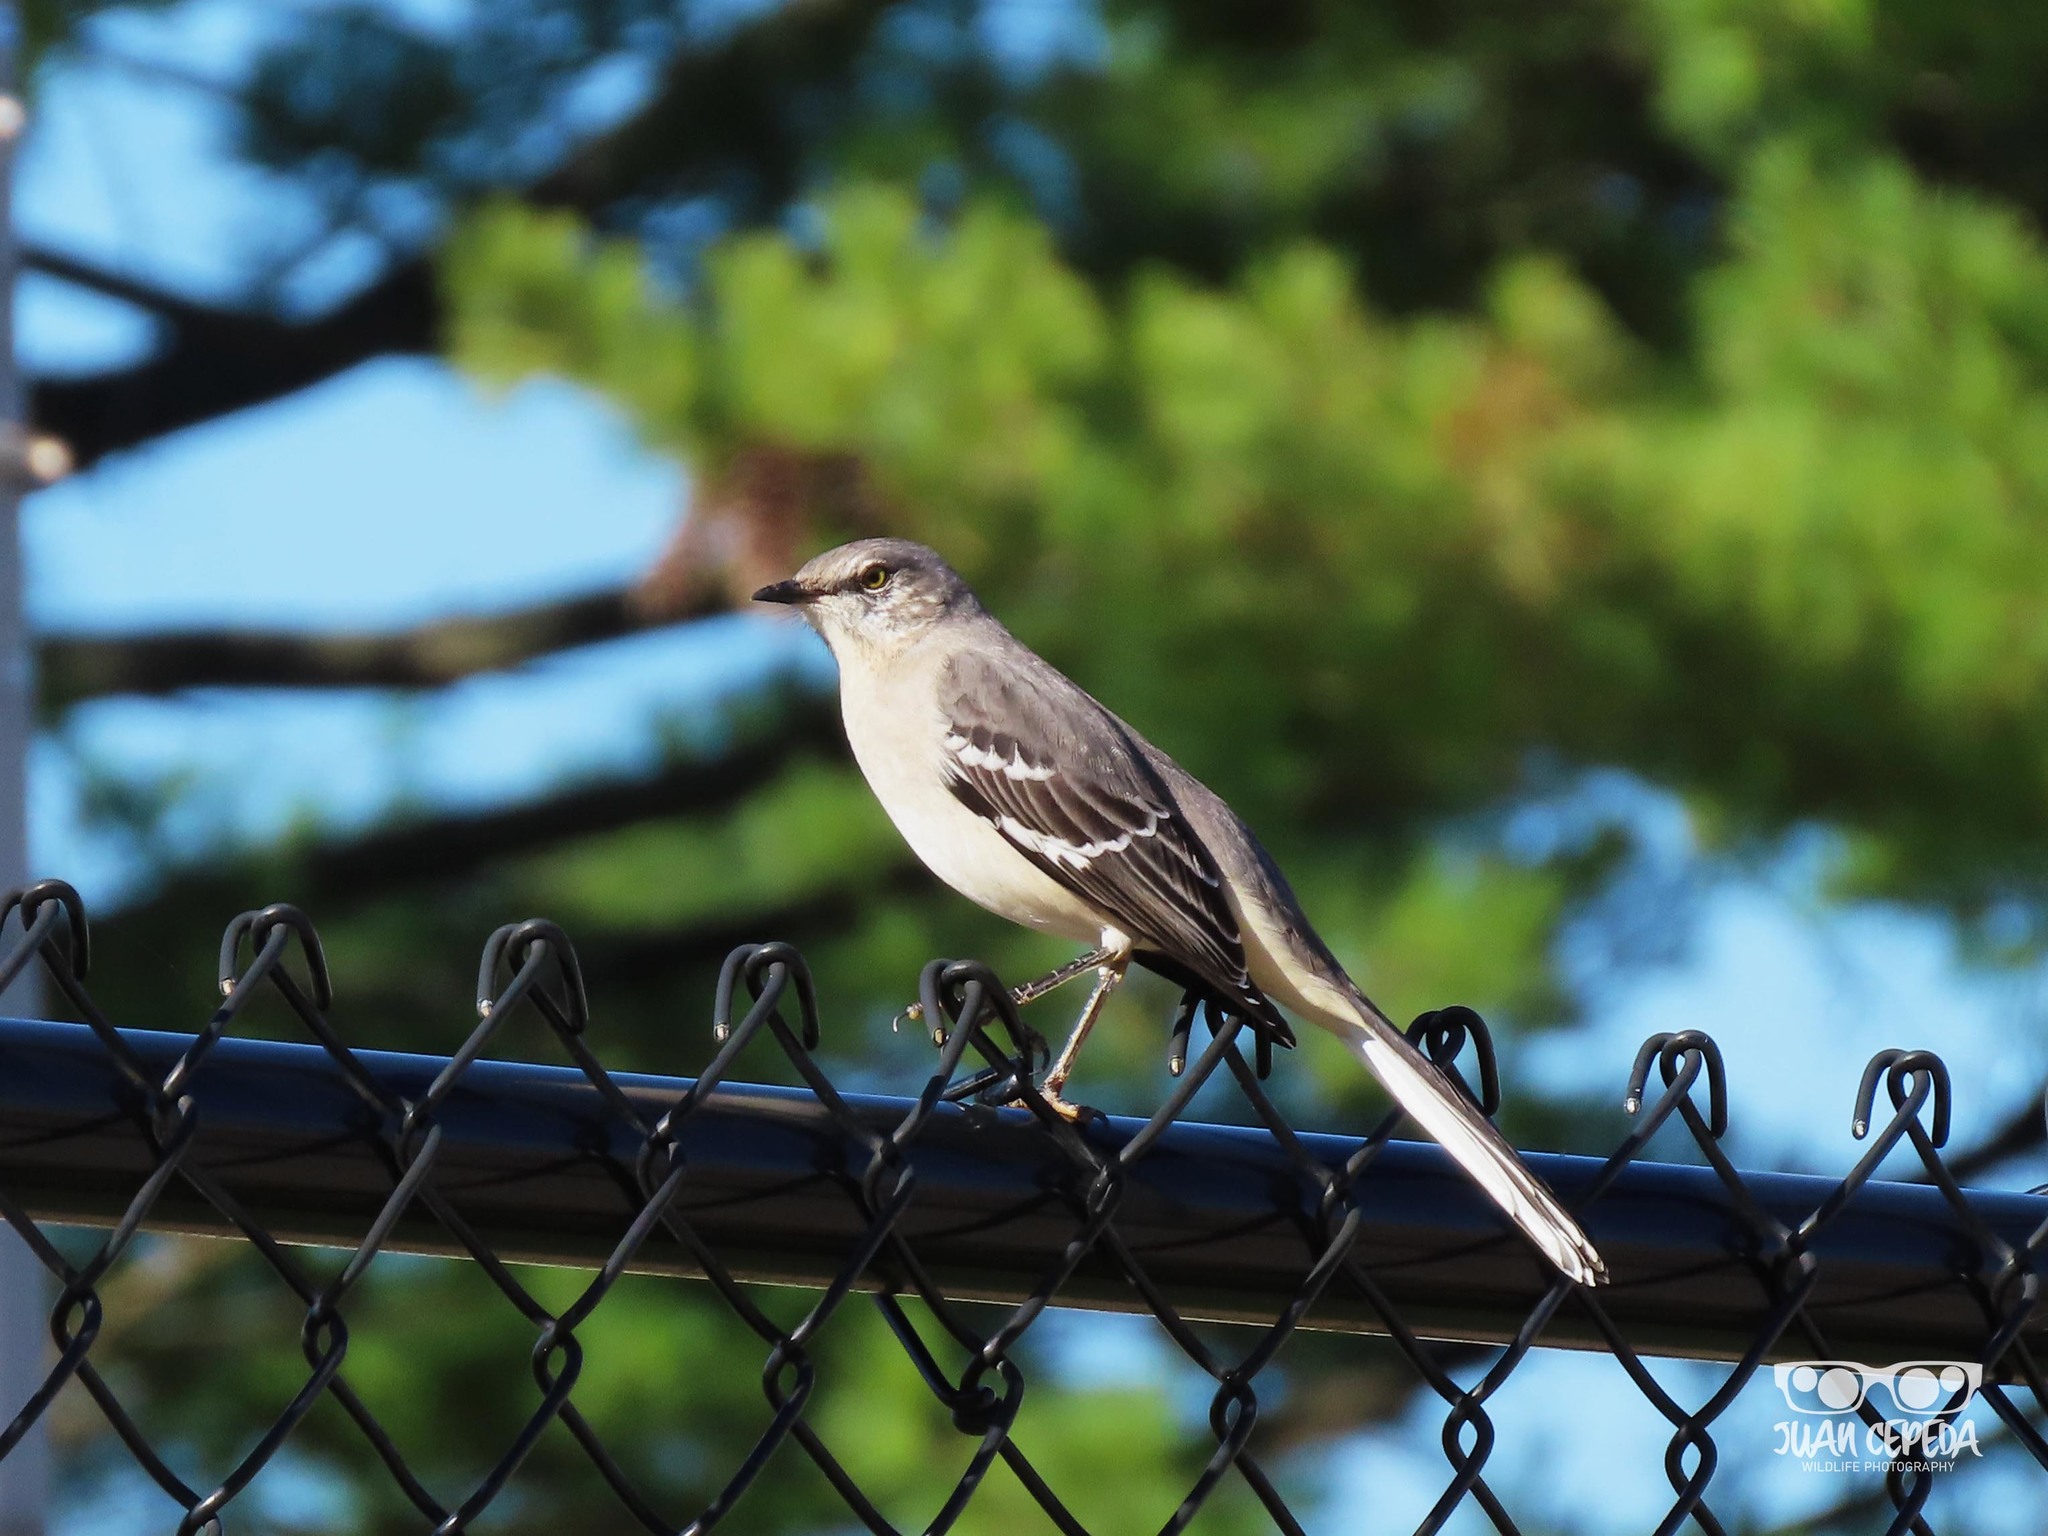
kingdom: Animalia
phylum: Chordata
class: Aves
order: Passeriformes
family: Mimidae
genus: Mimus
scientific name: Mimus polyglottos
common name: Northern mockingbird
